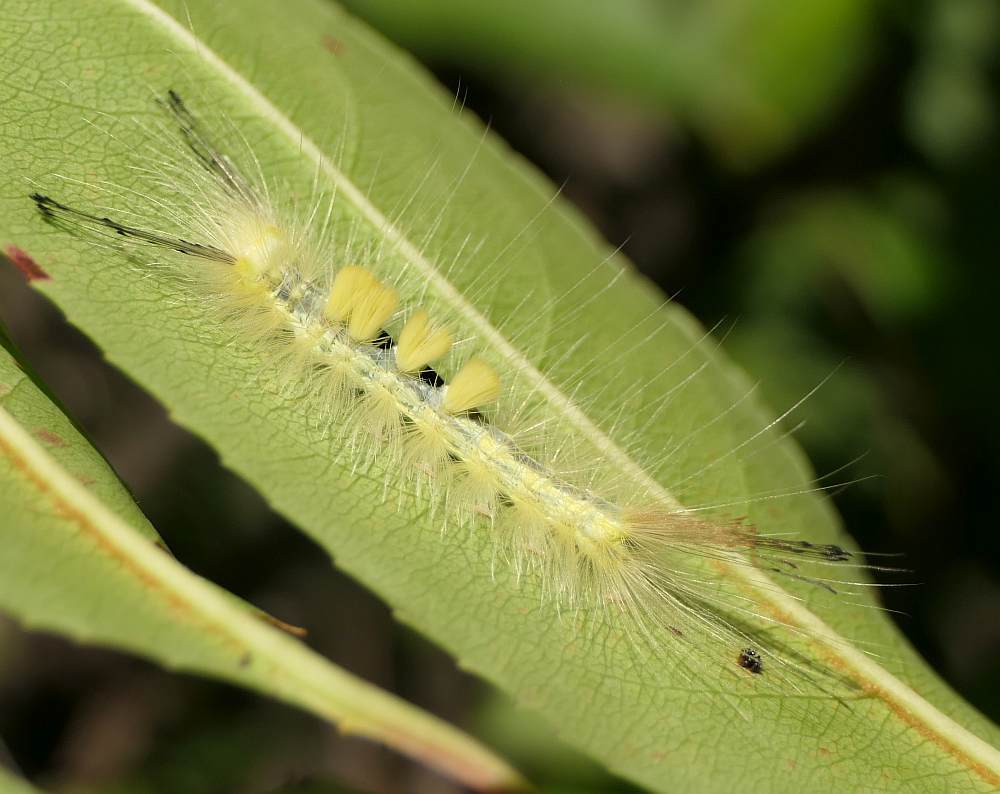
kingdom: Animalia
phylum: Arthropoda
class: Insecta
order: Lepidoptera
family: Erebidae
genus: Orgyia
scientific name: Orgyia definita
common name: Definite tussock moth
